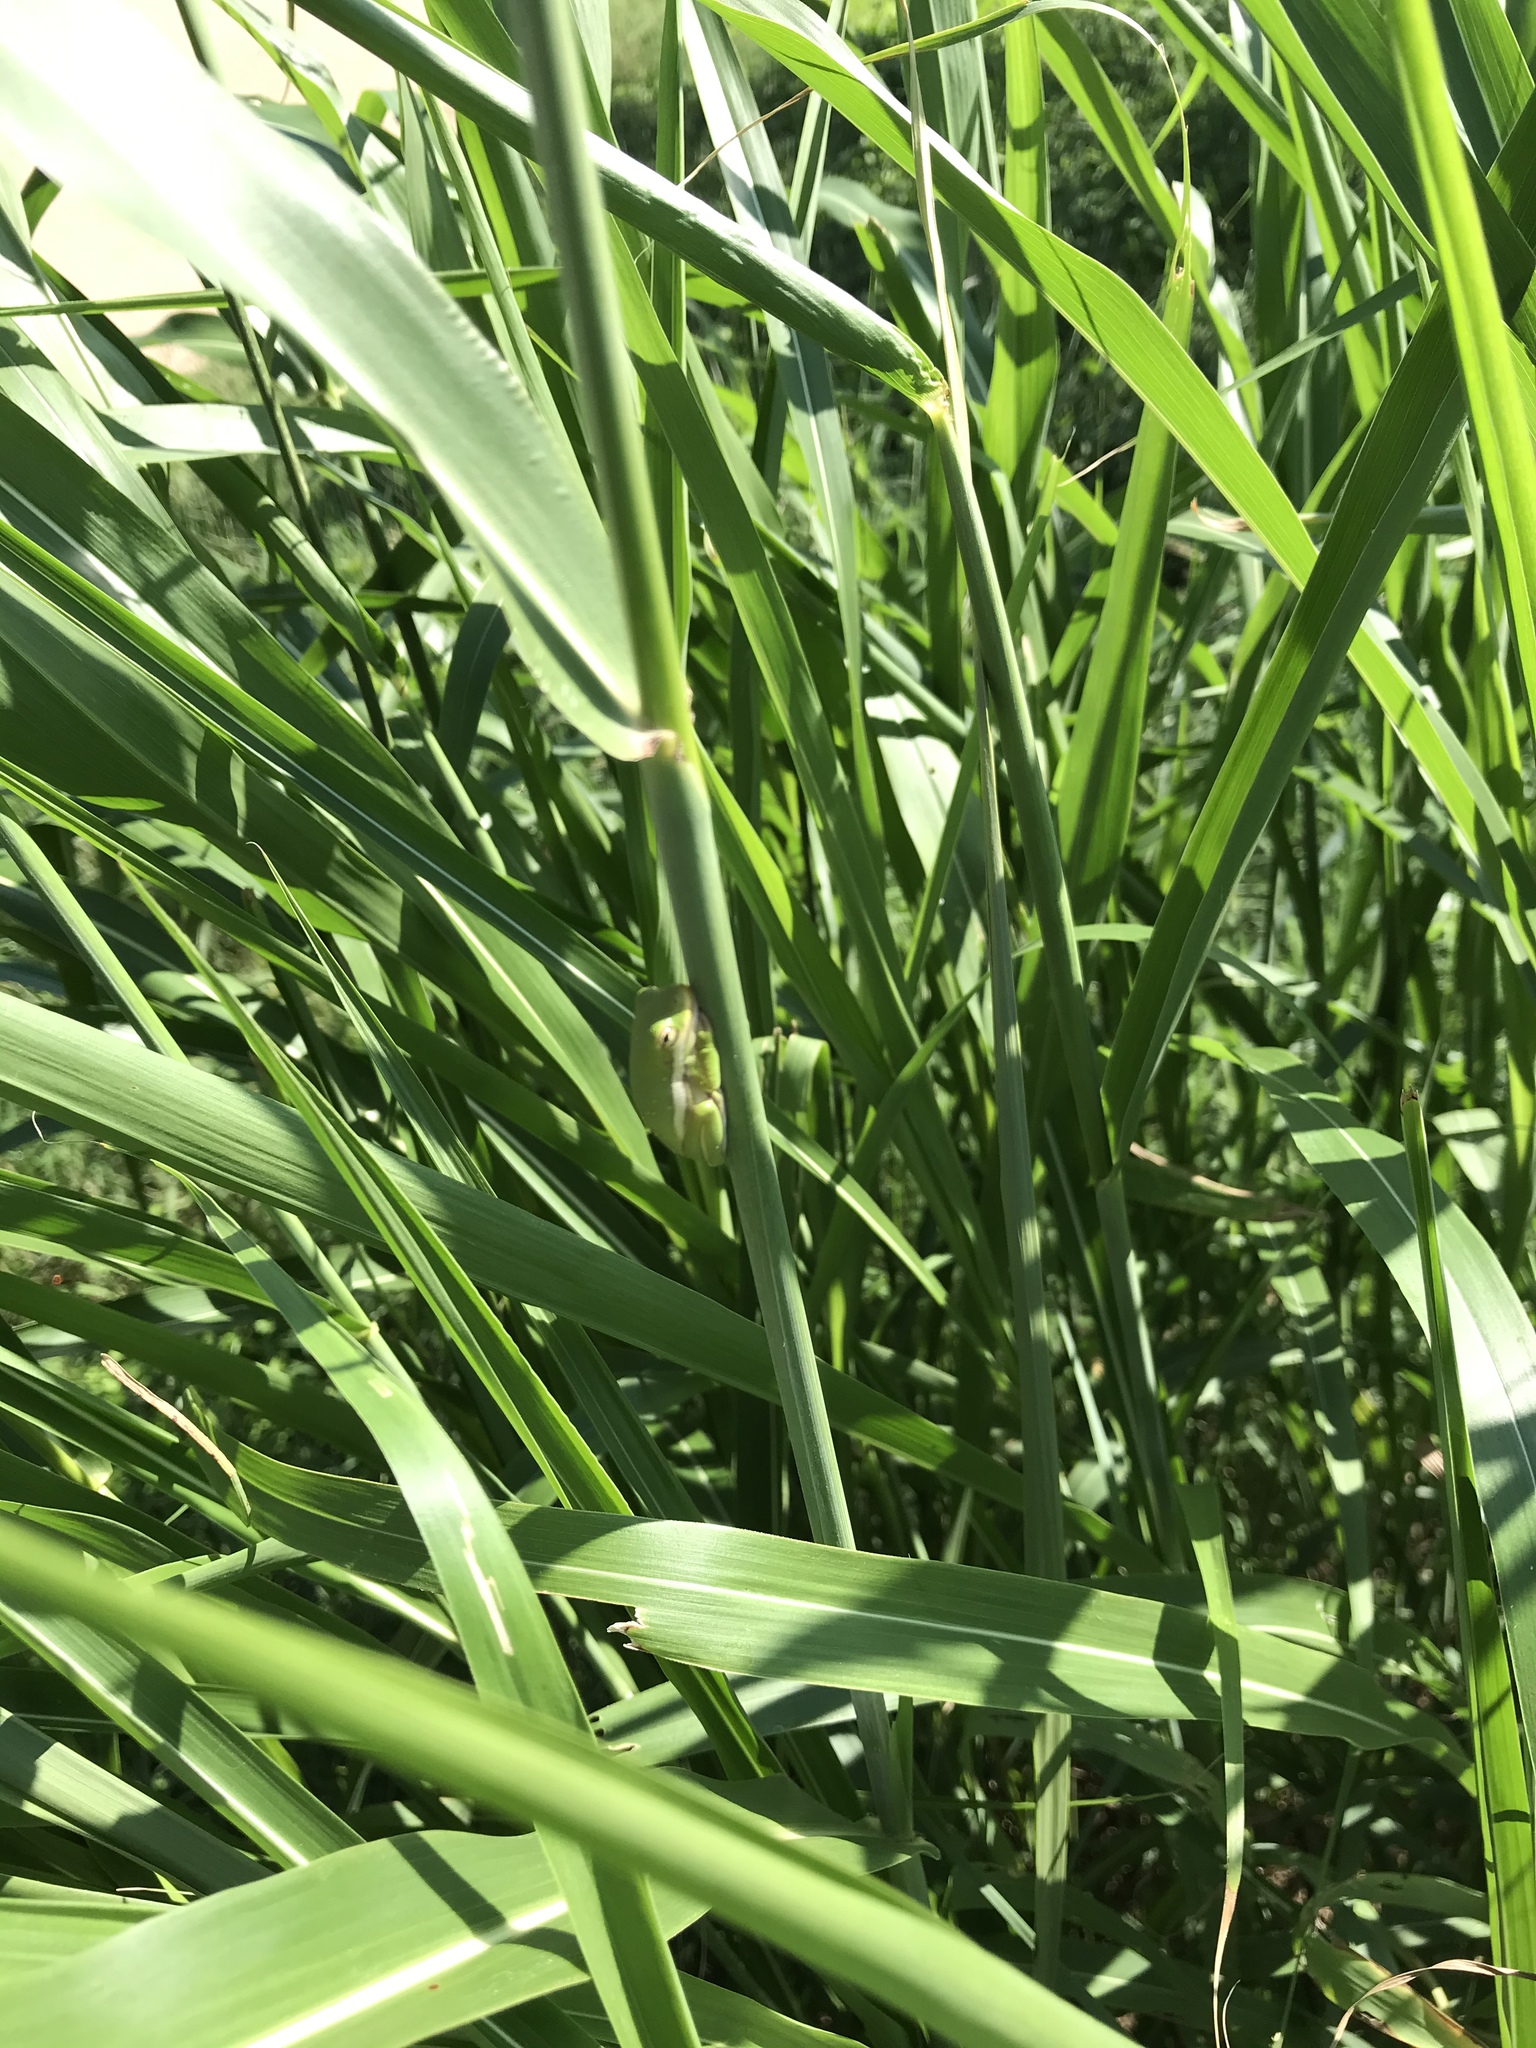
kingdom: Animalia
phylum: Chordata
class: Amphibia
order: Anura
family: Hylidae
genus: Dryophytes
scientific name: Dryophytes cinereus
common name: Green treefrog
